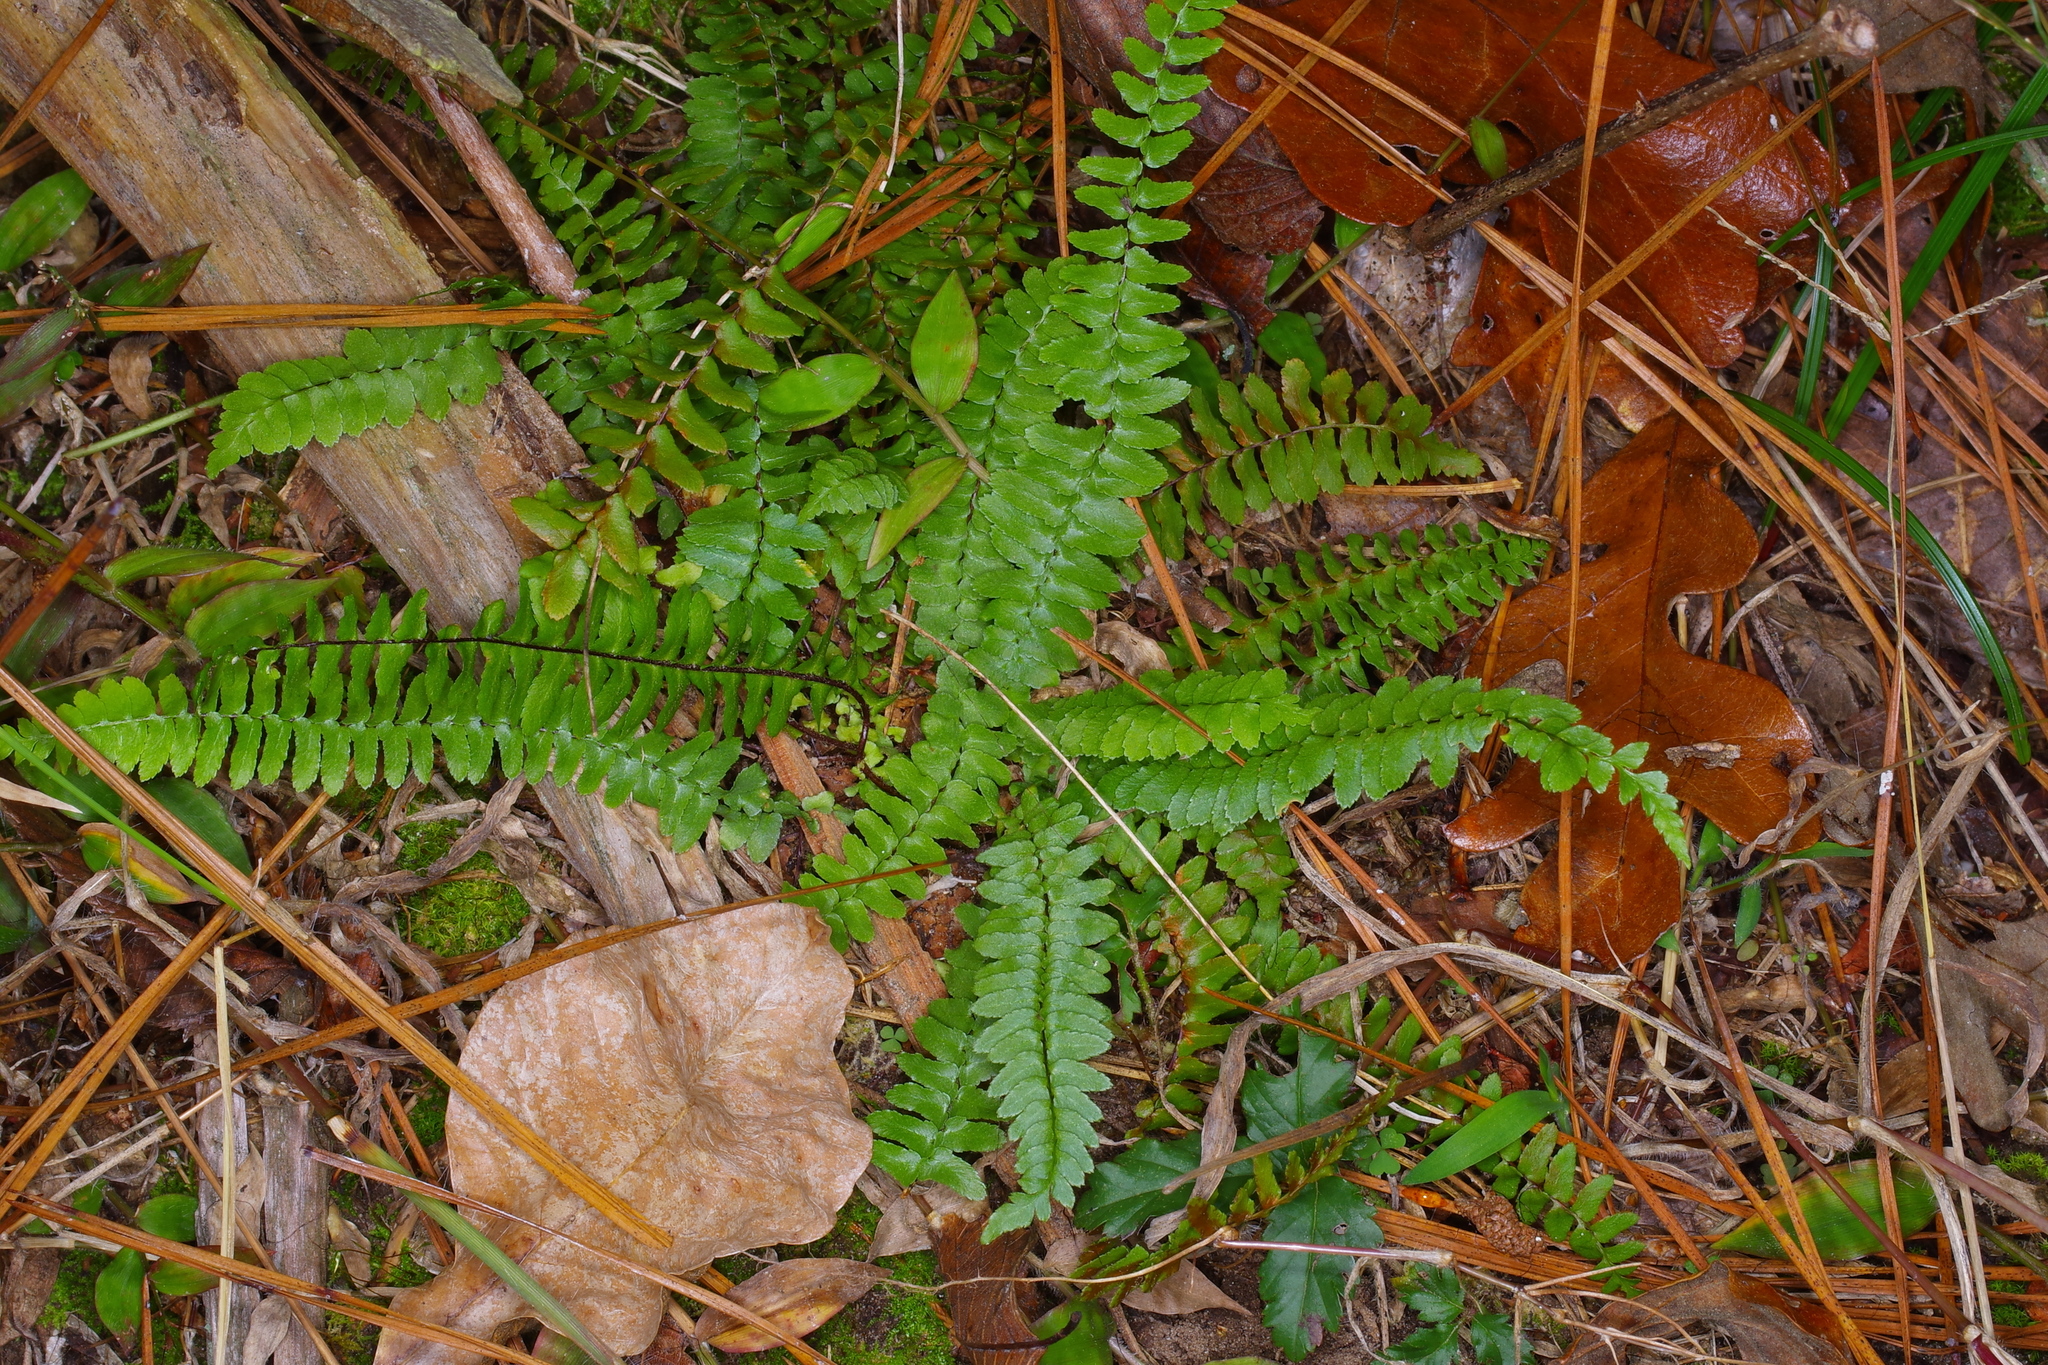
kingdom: Plantae
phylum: Tracheophyta
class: Polypodiopsida
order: Polypodiales
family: Aspleniaceae
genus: Asplenium
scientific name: Asplenium platyneuron
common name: Ebony spleenwort
